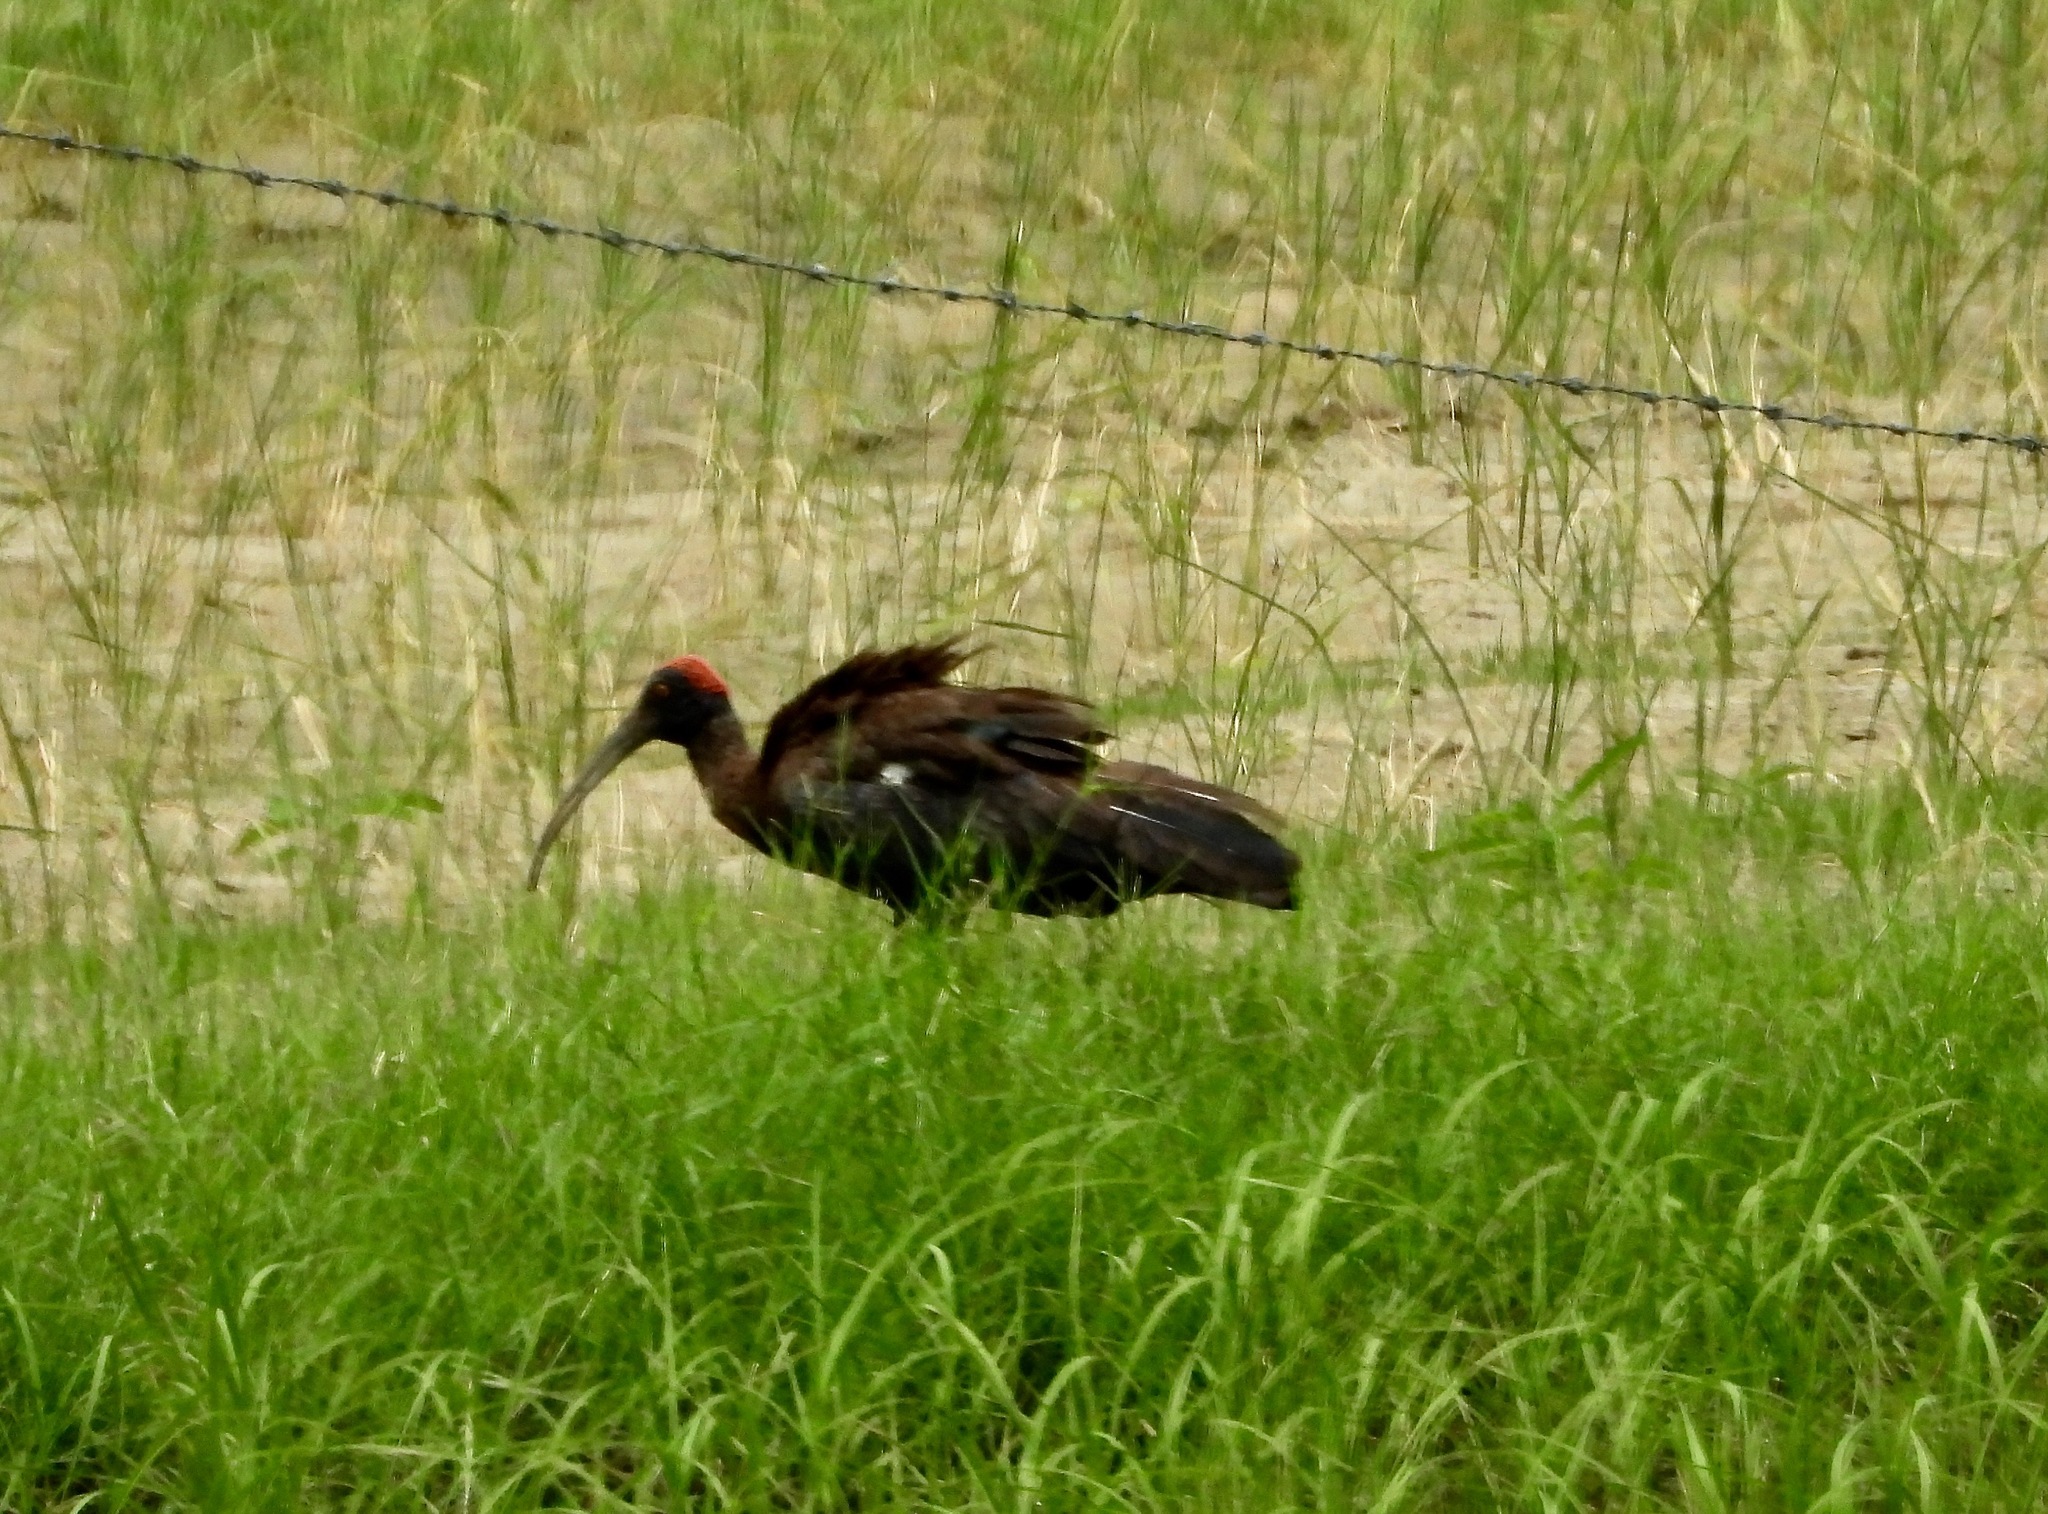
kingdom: Animalia
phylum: Chordata
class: Aves
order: Pelecaniformes
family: Threskiornithidae
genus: Pseudibis
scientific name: Pseudibis papillosa
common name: Red-naped ibis
